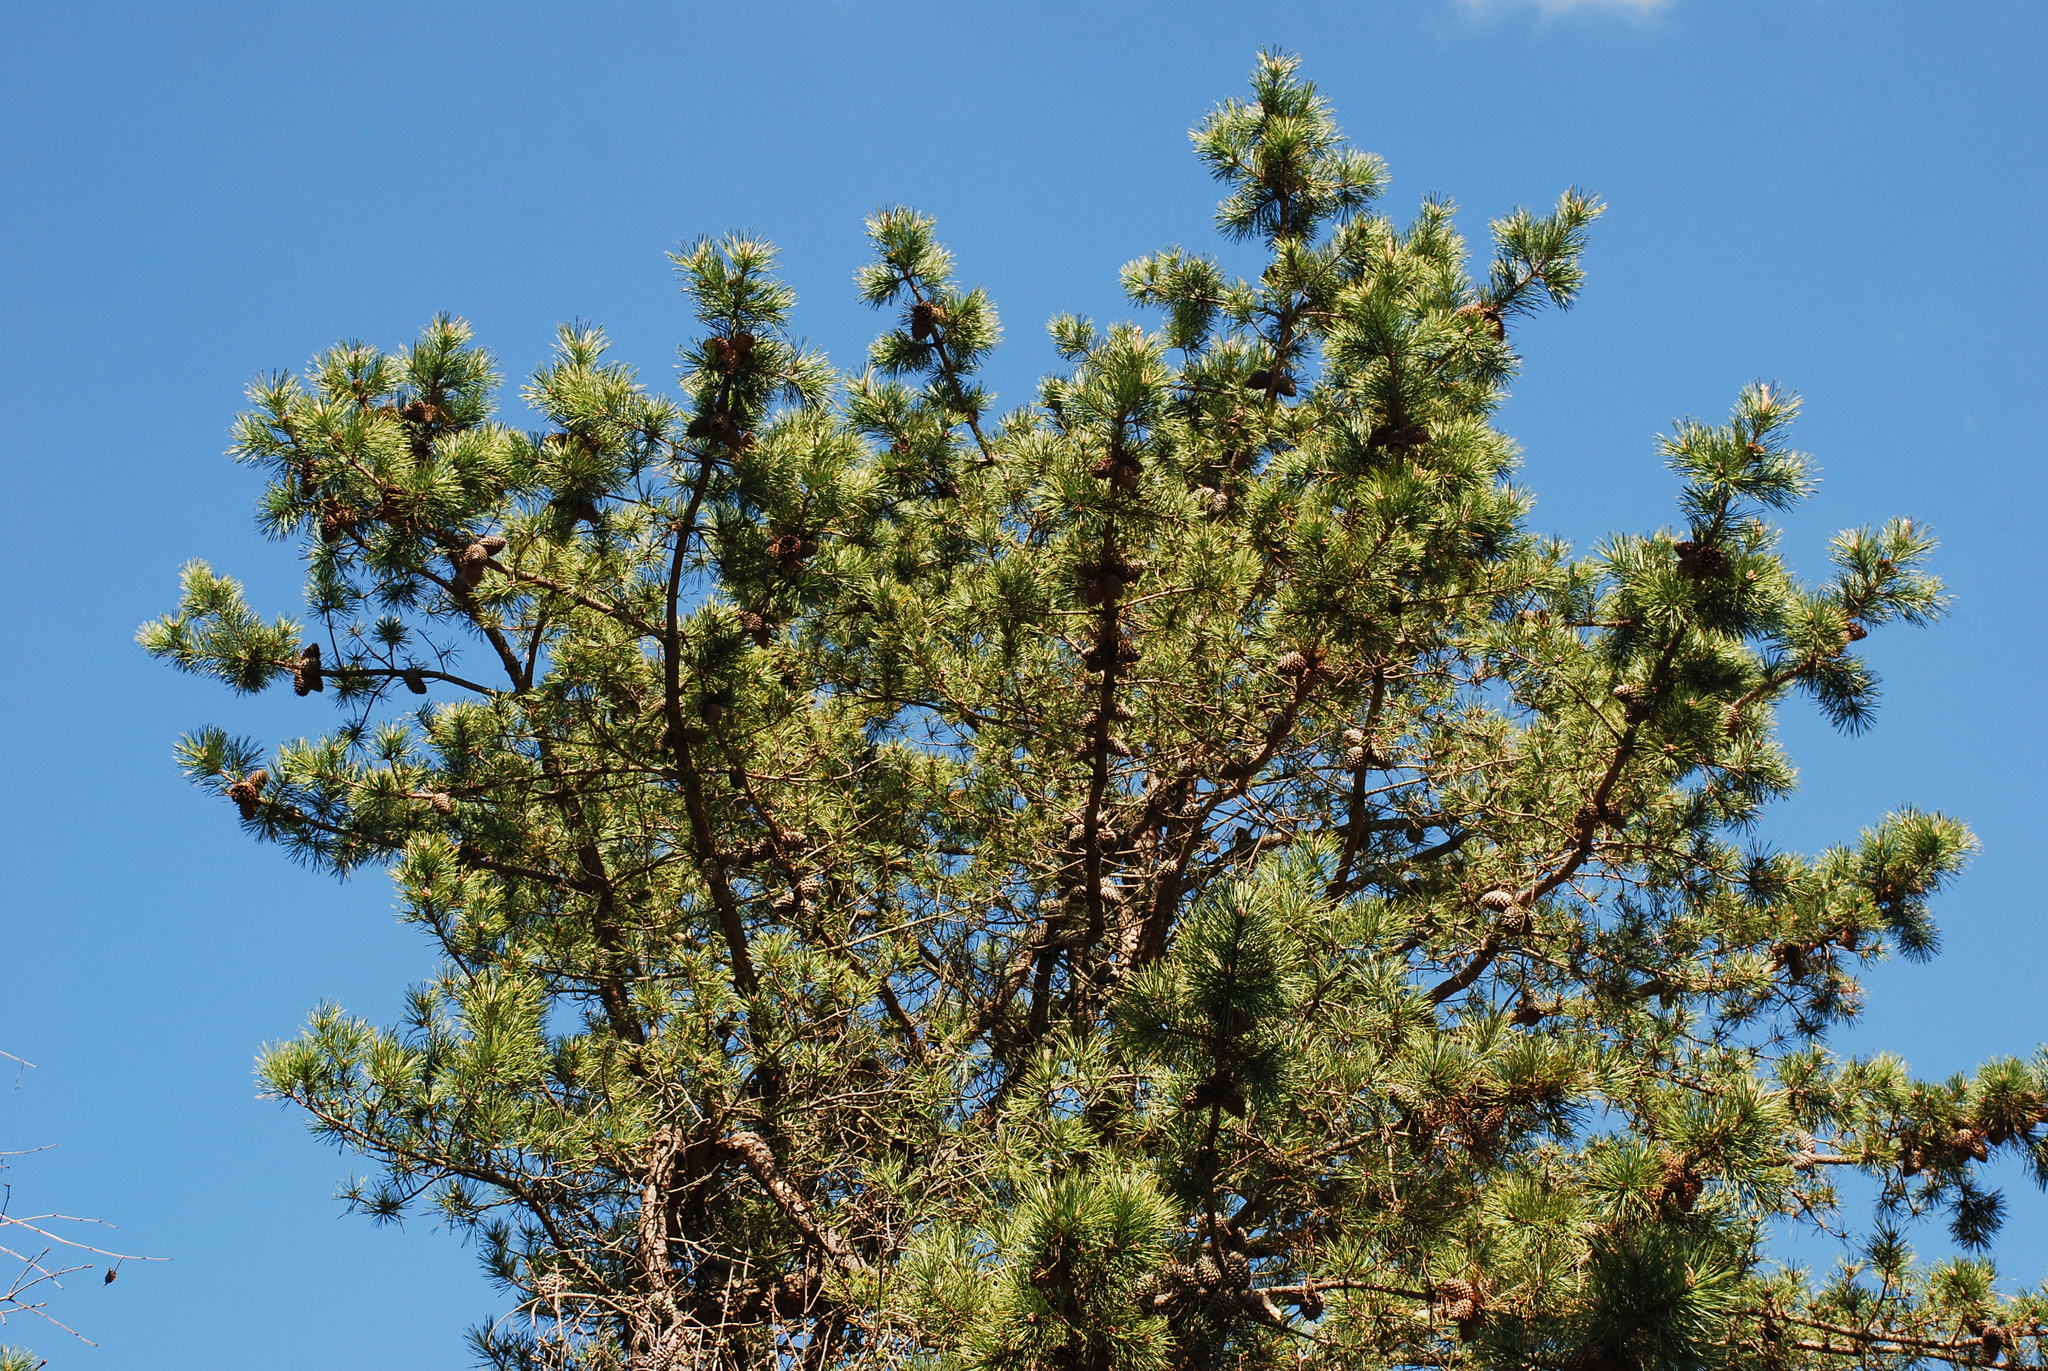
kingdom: Plantae
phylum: Tracheophyta
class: Pinopsida
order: Pinales
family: Pinaceae
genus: Pinus
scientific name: Pinus pungens
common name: Hickory pine
